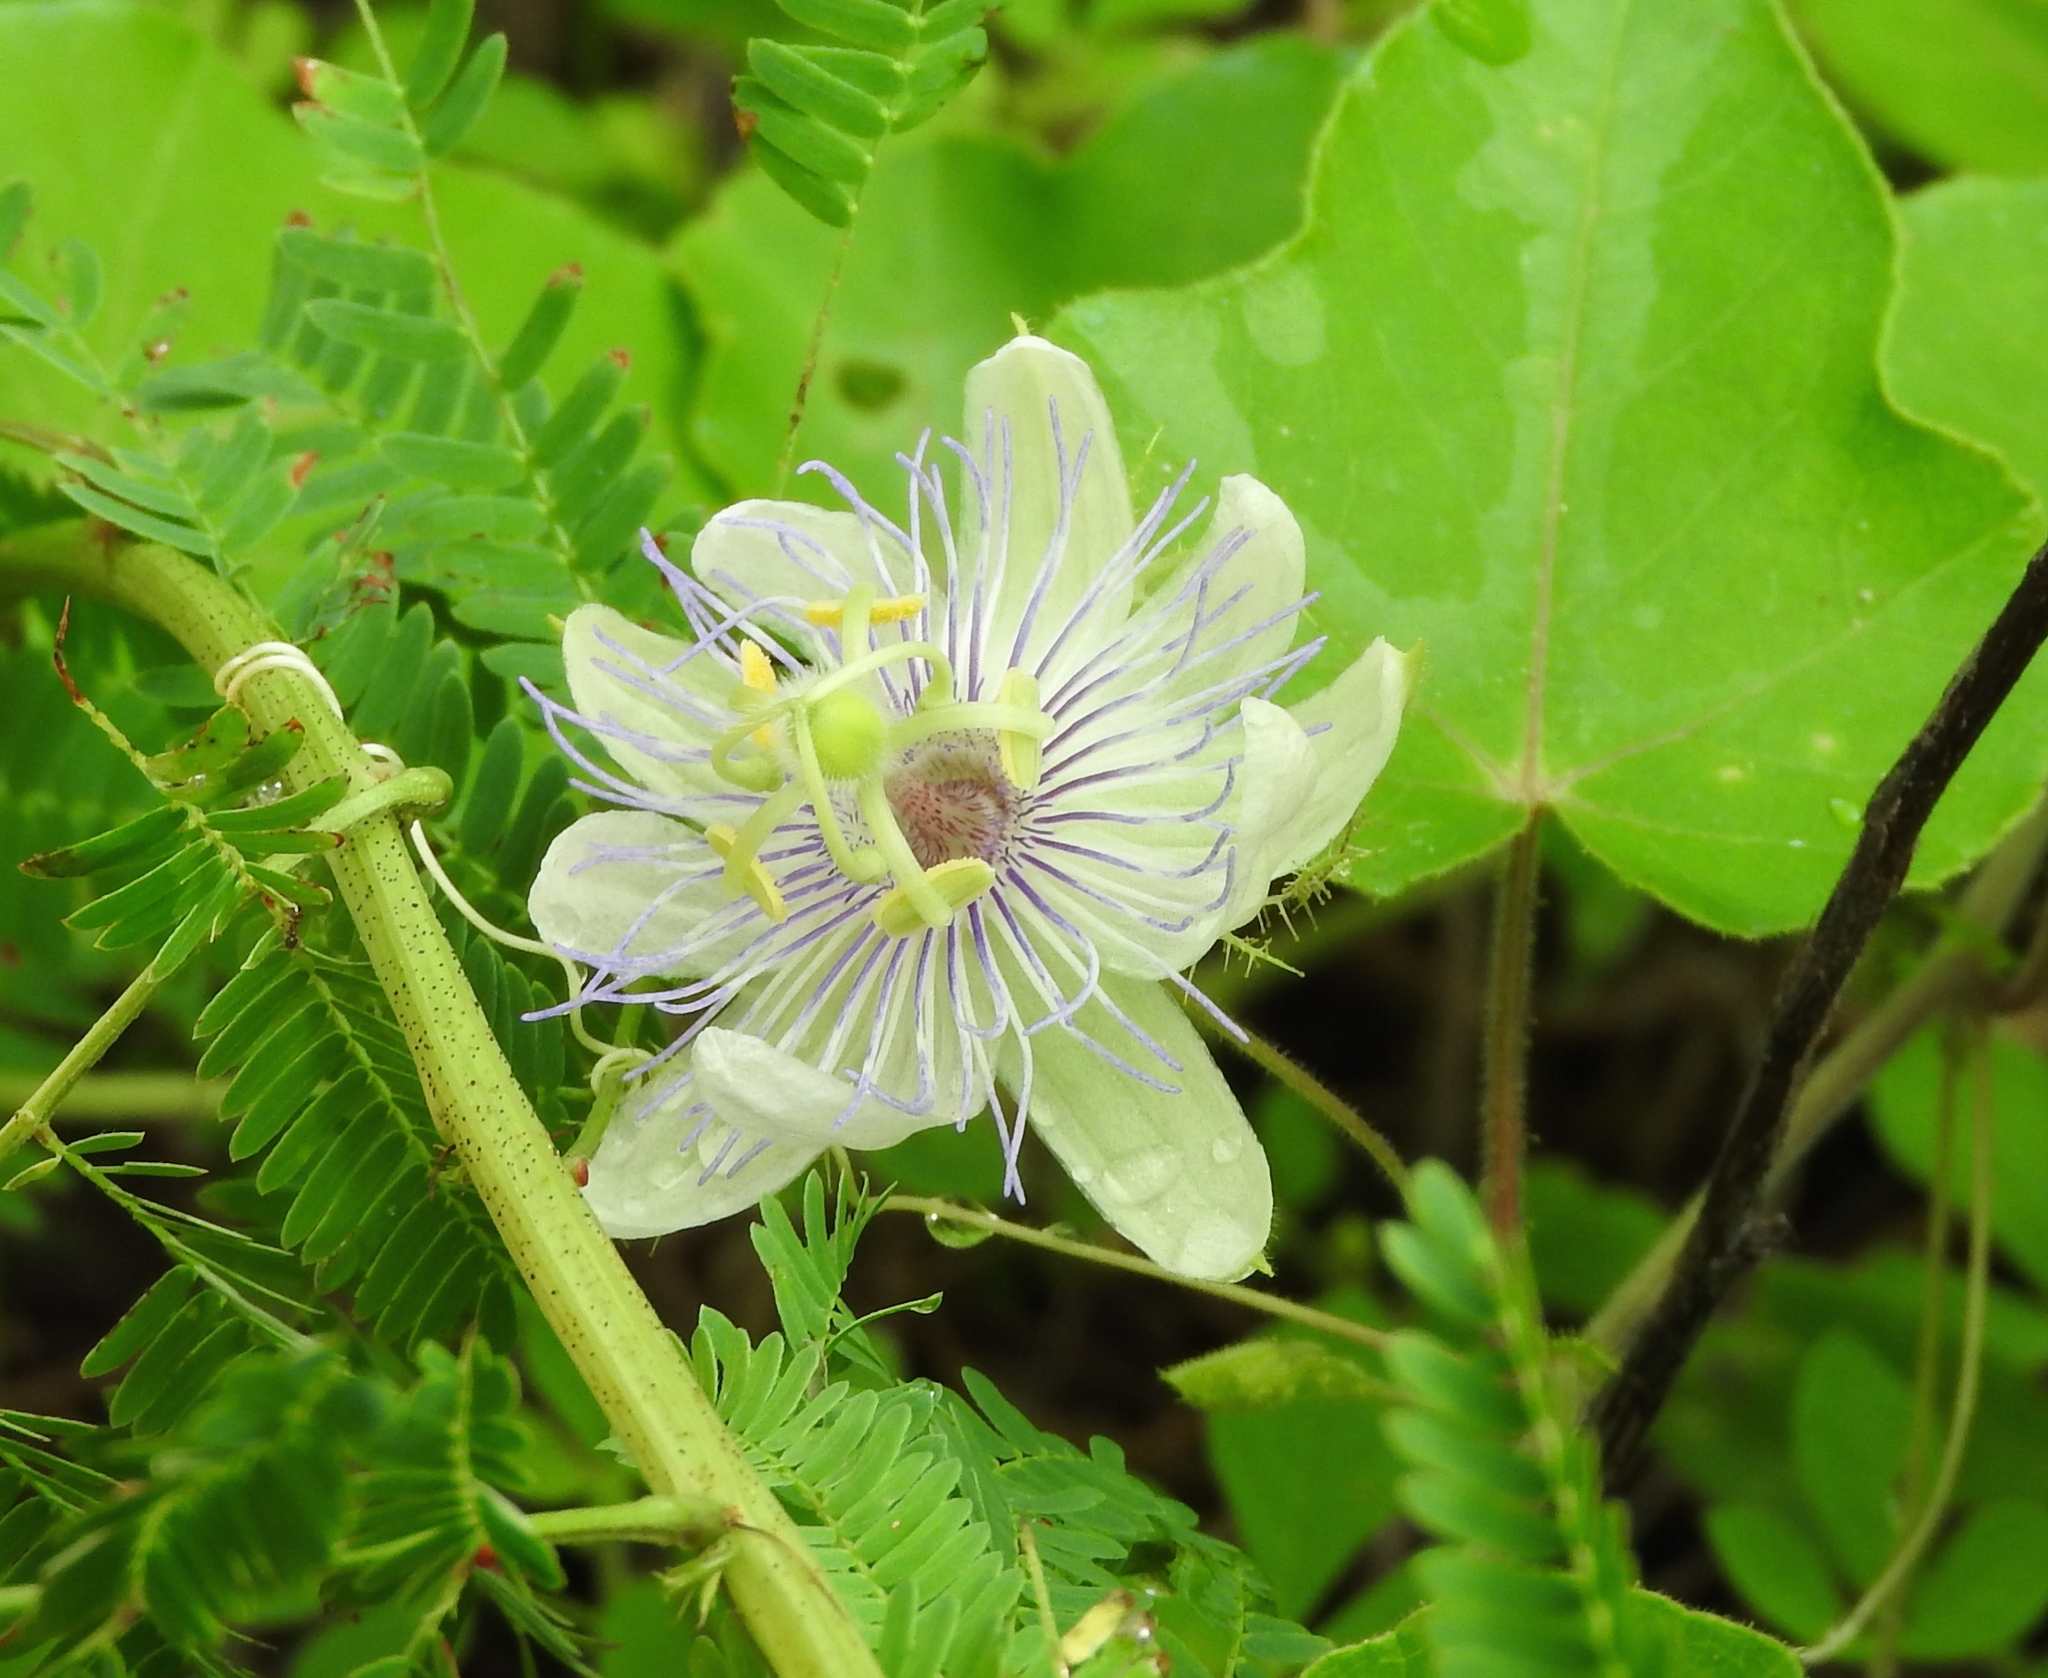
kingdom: Plantae
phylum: Tracheophyta
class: Magnoliopsida
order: Malpighiales
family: Passifloraceae
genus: Passiflora
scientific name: Passiflora foetida
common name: Fetid passionflower
